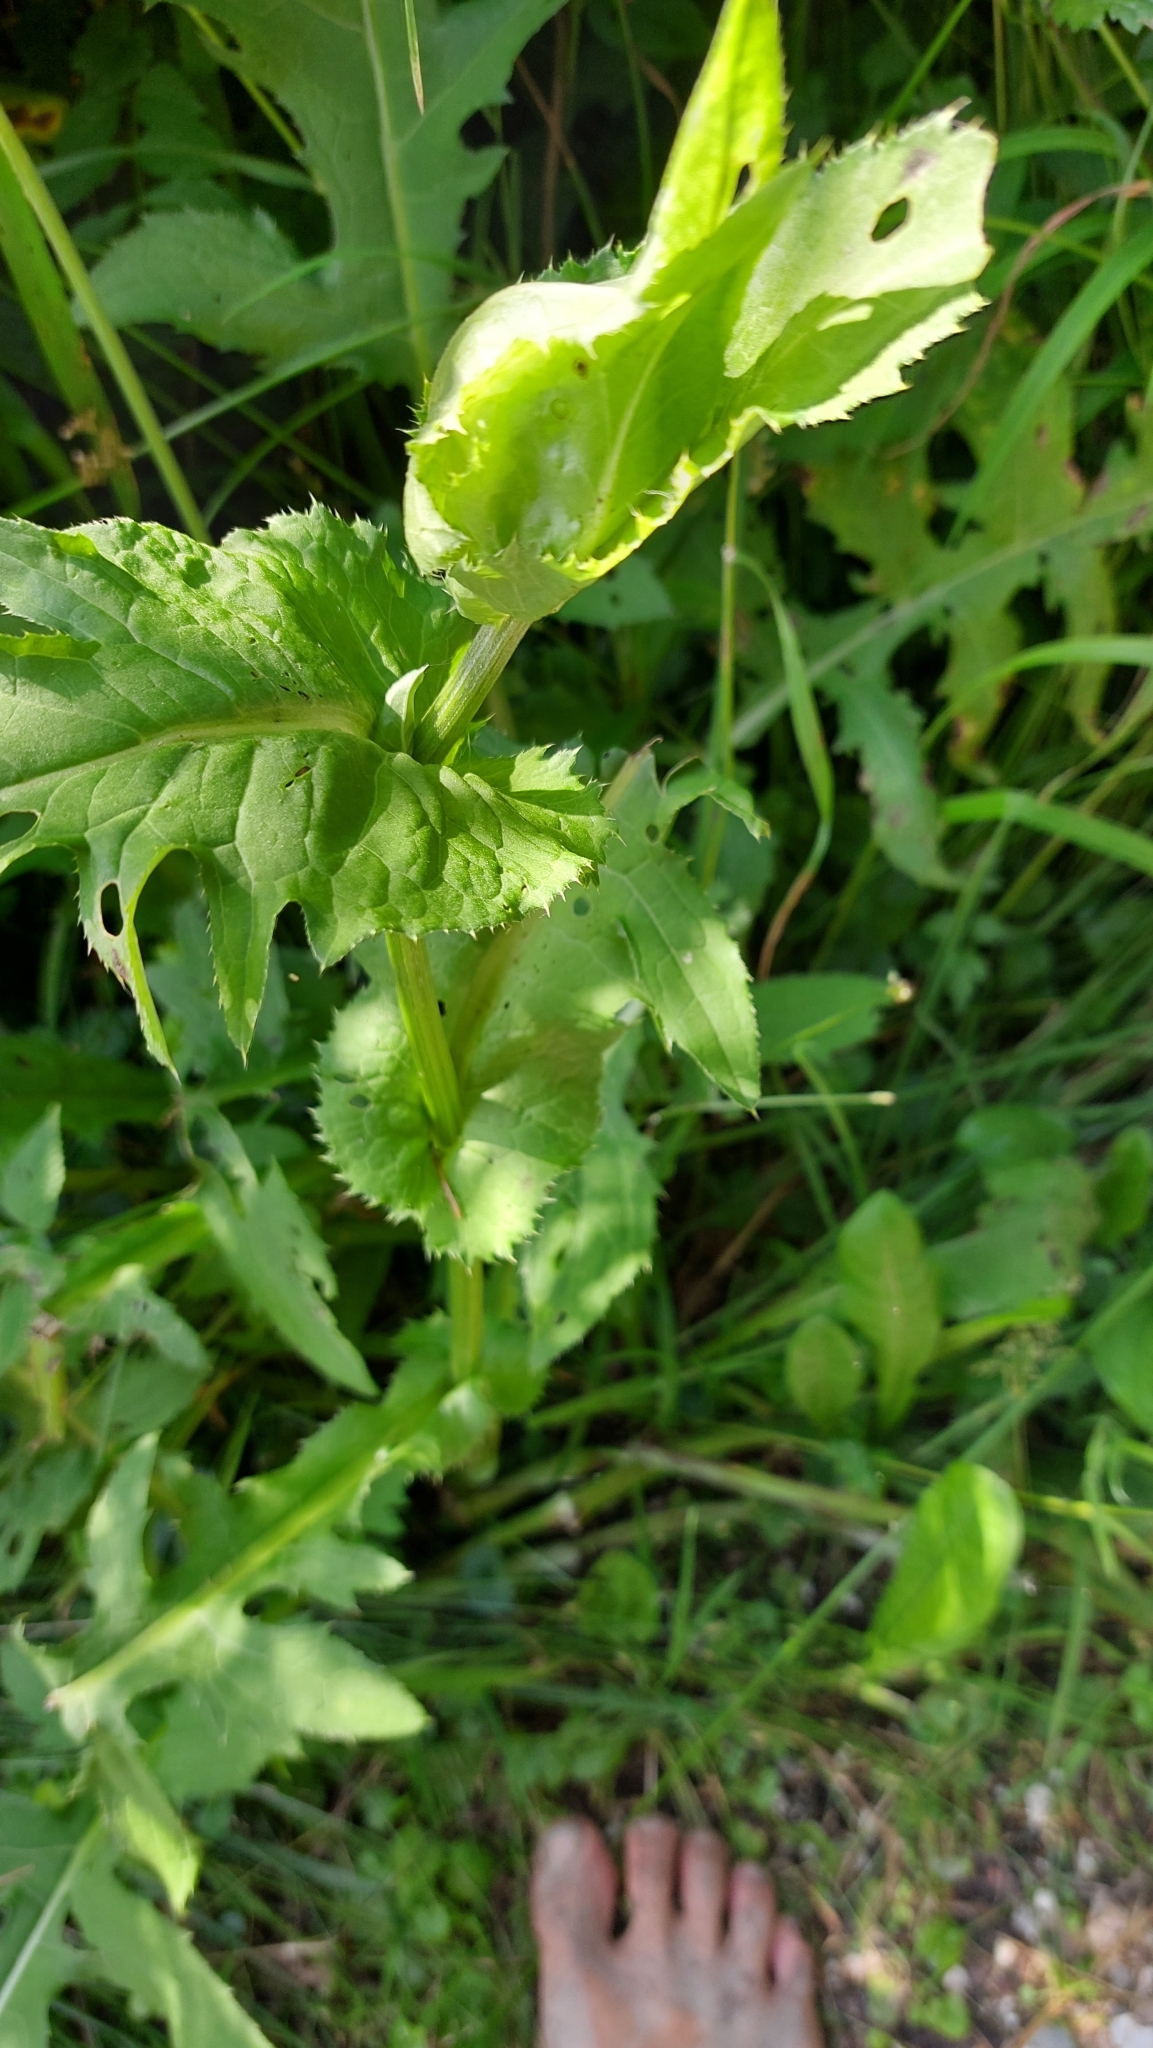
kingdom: Plantae
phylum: Tracheophyta
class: Magnoliopsida
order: Asterales
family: Asteraceae
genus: Cirsium
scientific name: Cirsium oleraceum
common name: Cabbage thistle
